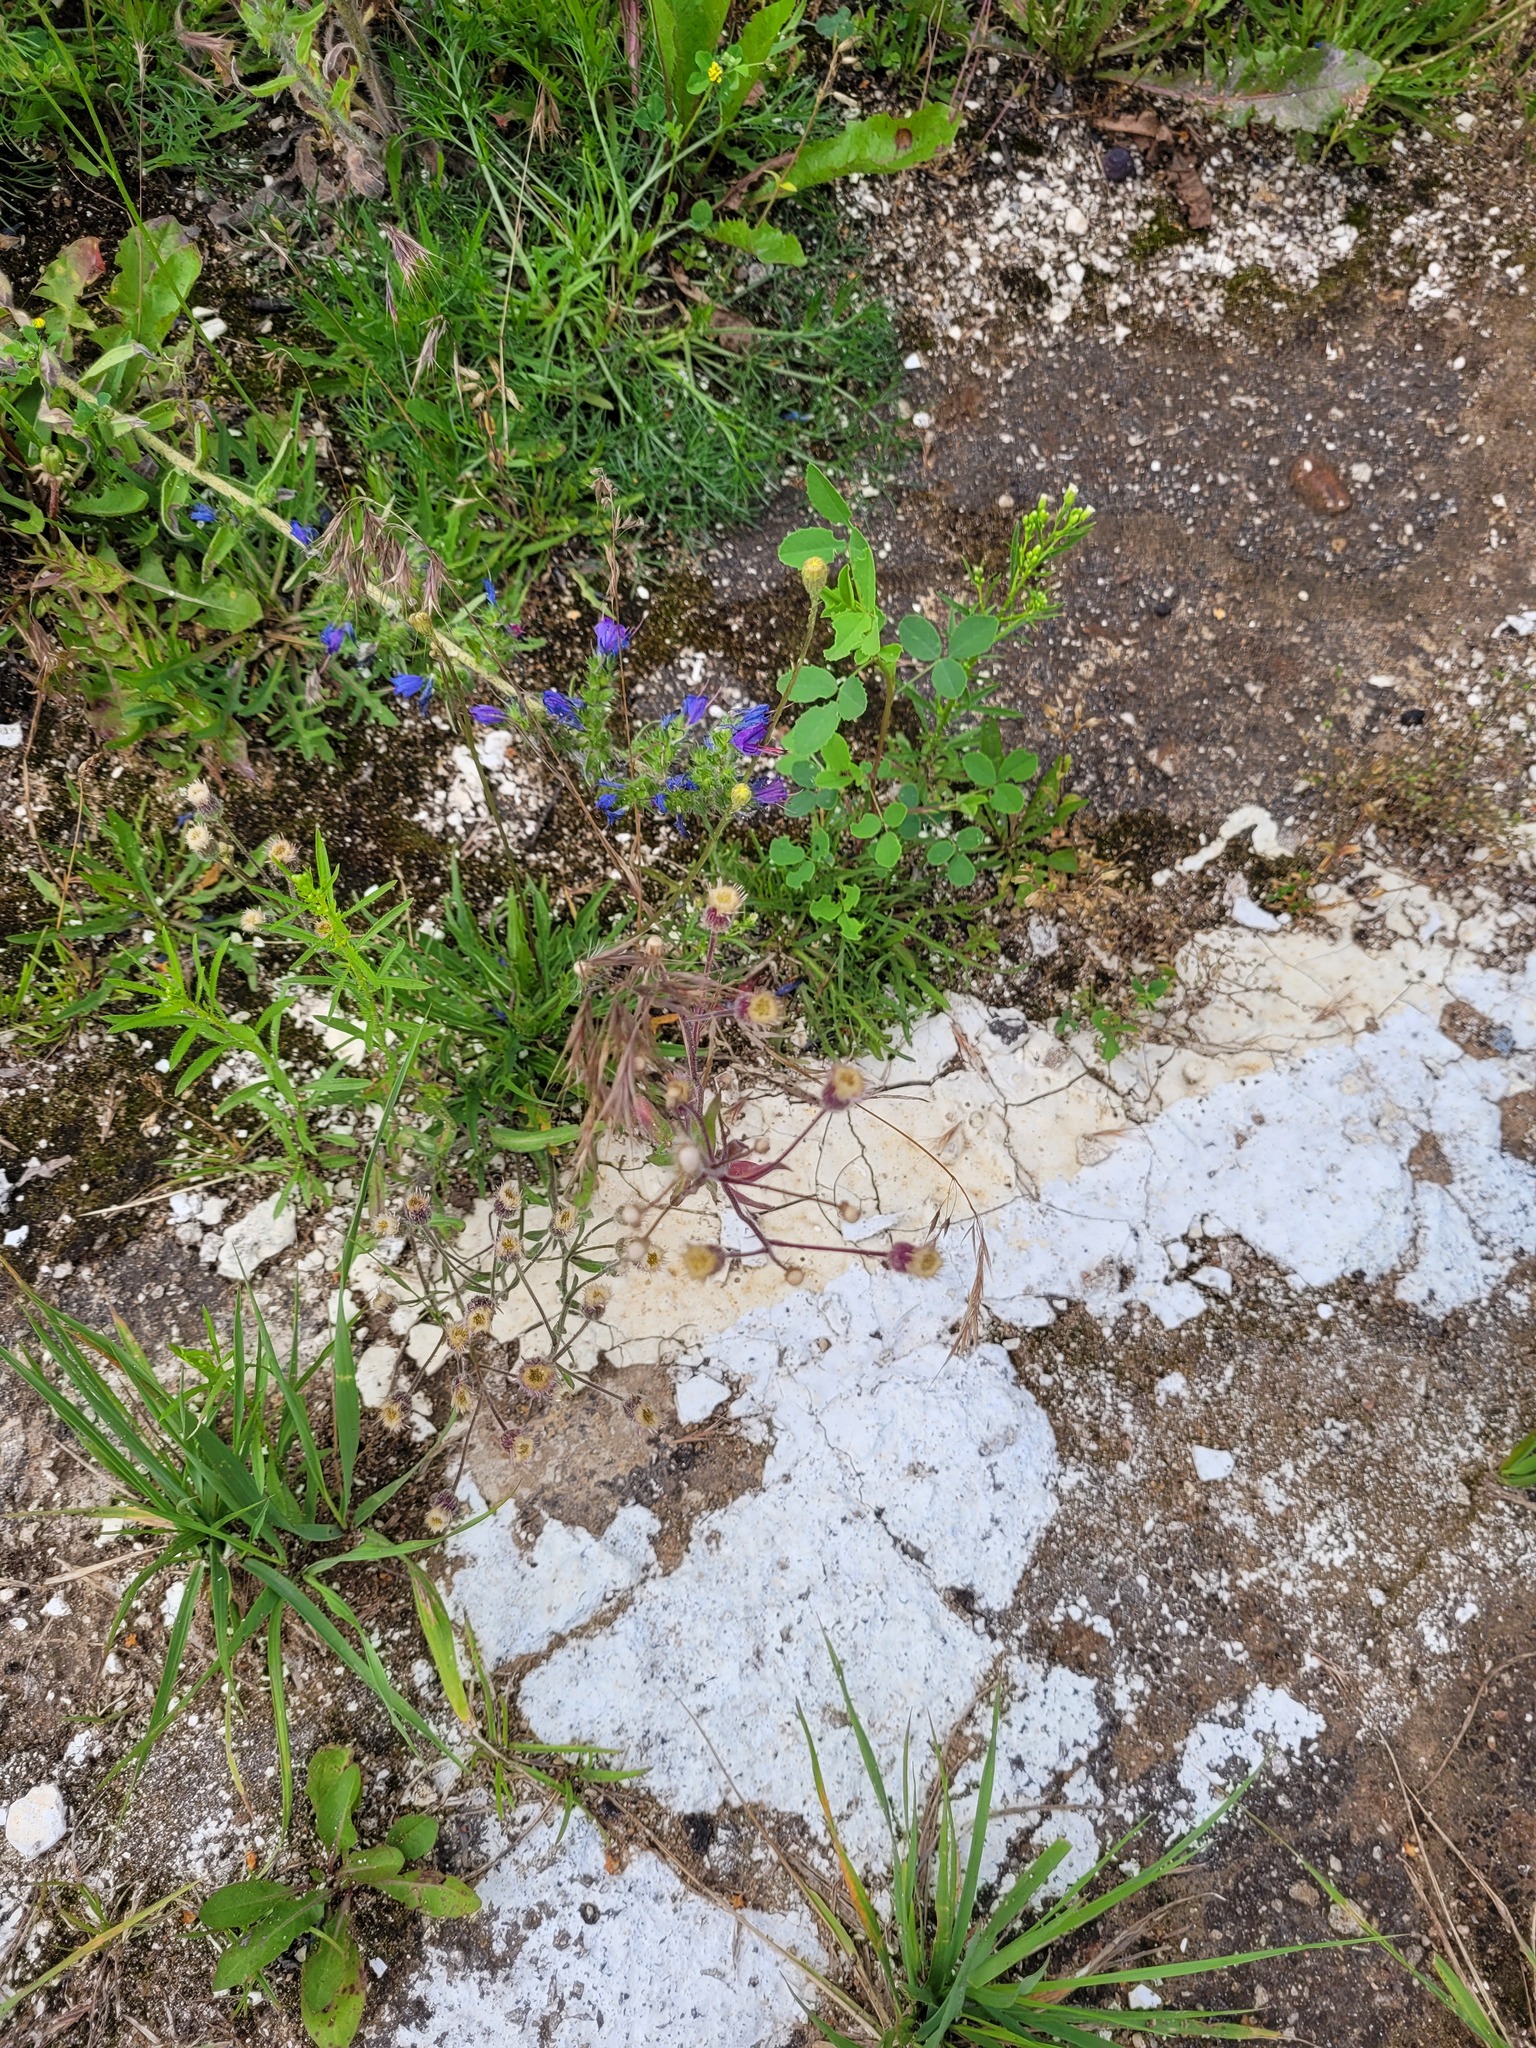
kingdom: Plantae
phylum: Tracheophyta
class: Magnoliopsida
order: Asterales
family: Asteraceae
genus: Erigeron
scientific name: Erigeron acris
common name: Blue fleabane
